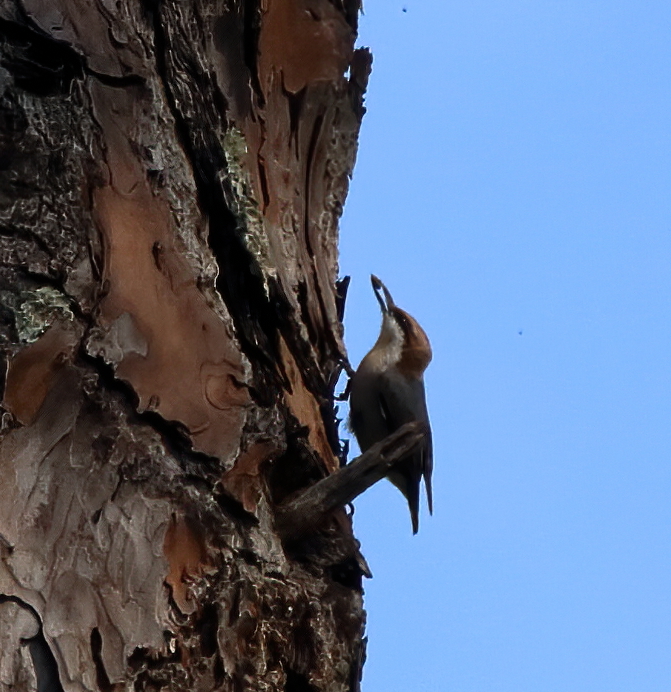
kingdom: Animalia
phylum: Chordata
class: Aves
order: Passeriformes
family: Sittidae
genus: Sitta
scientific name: Sitta pusilla
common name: Brown-headed nuthatch
